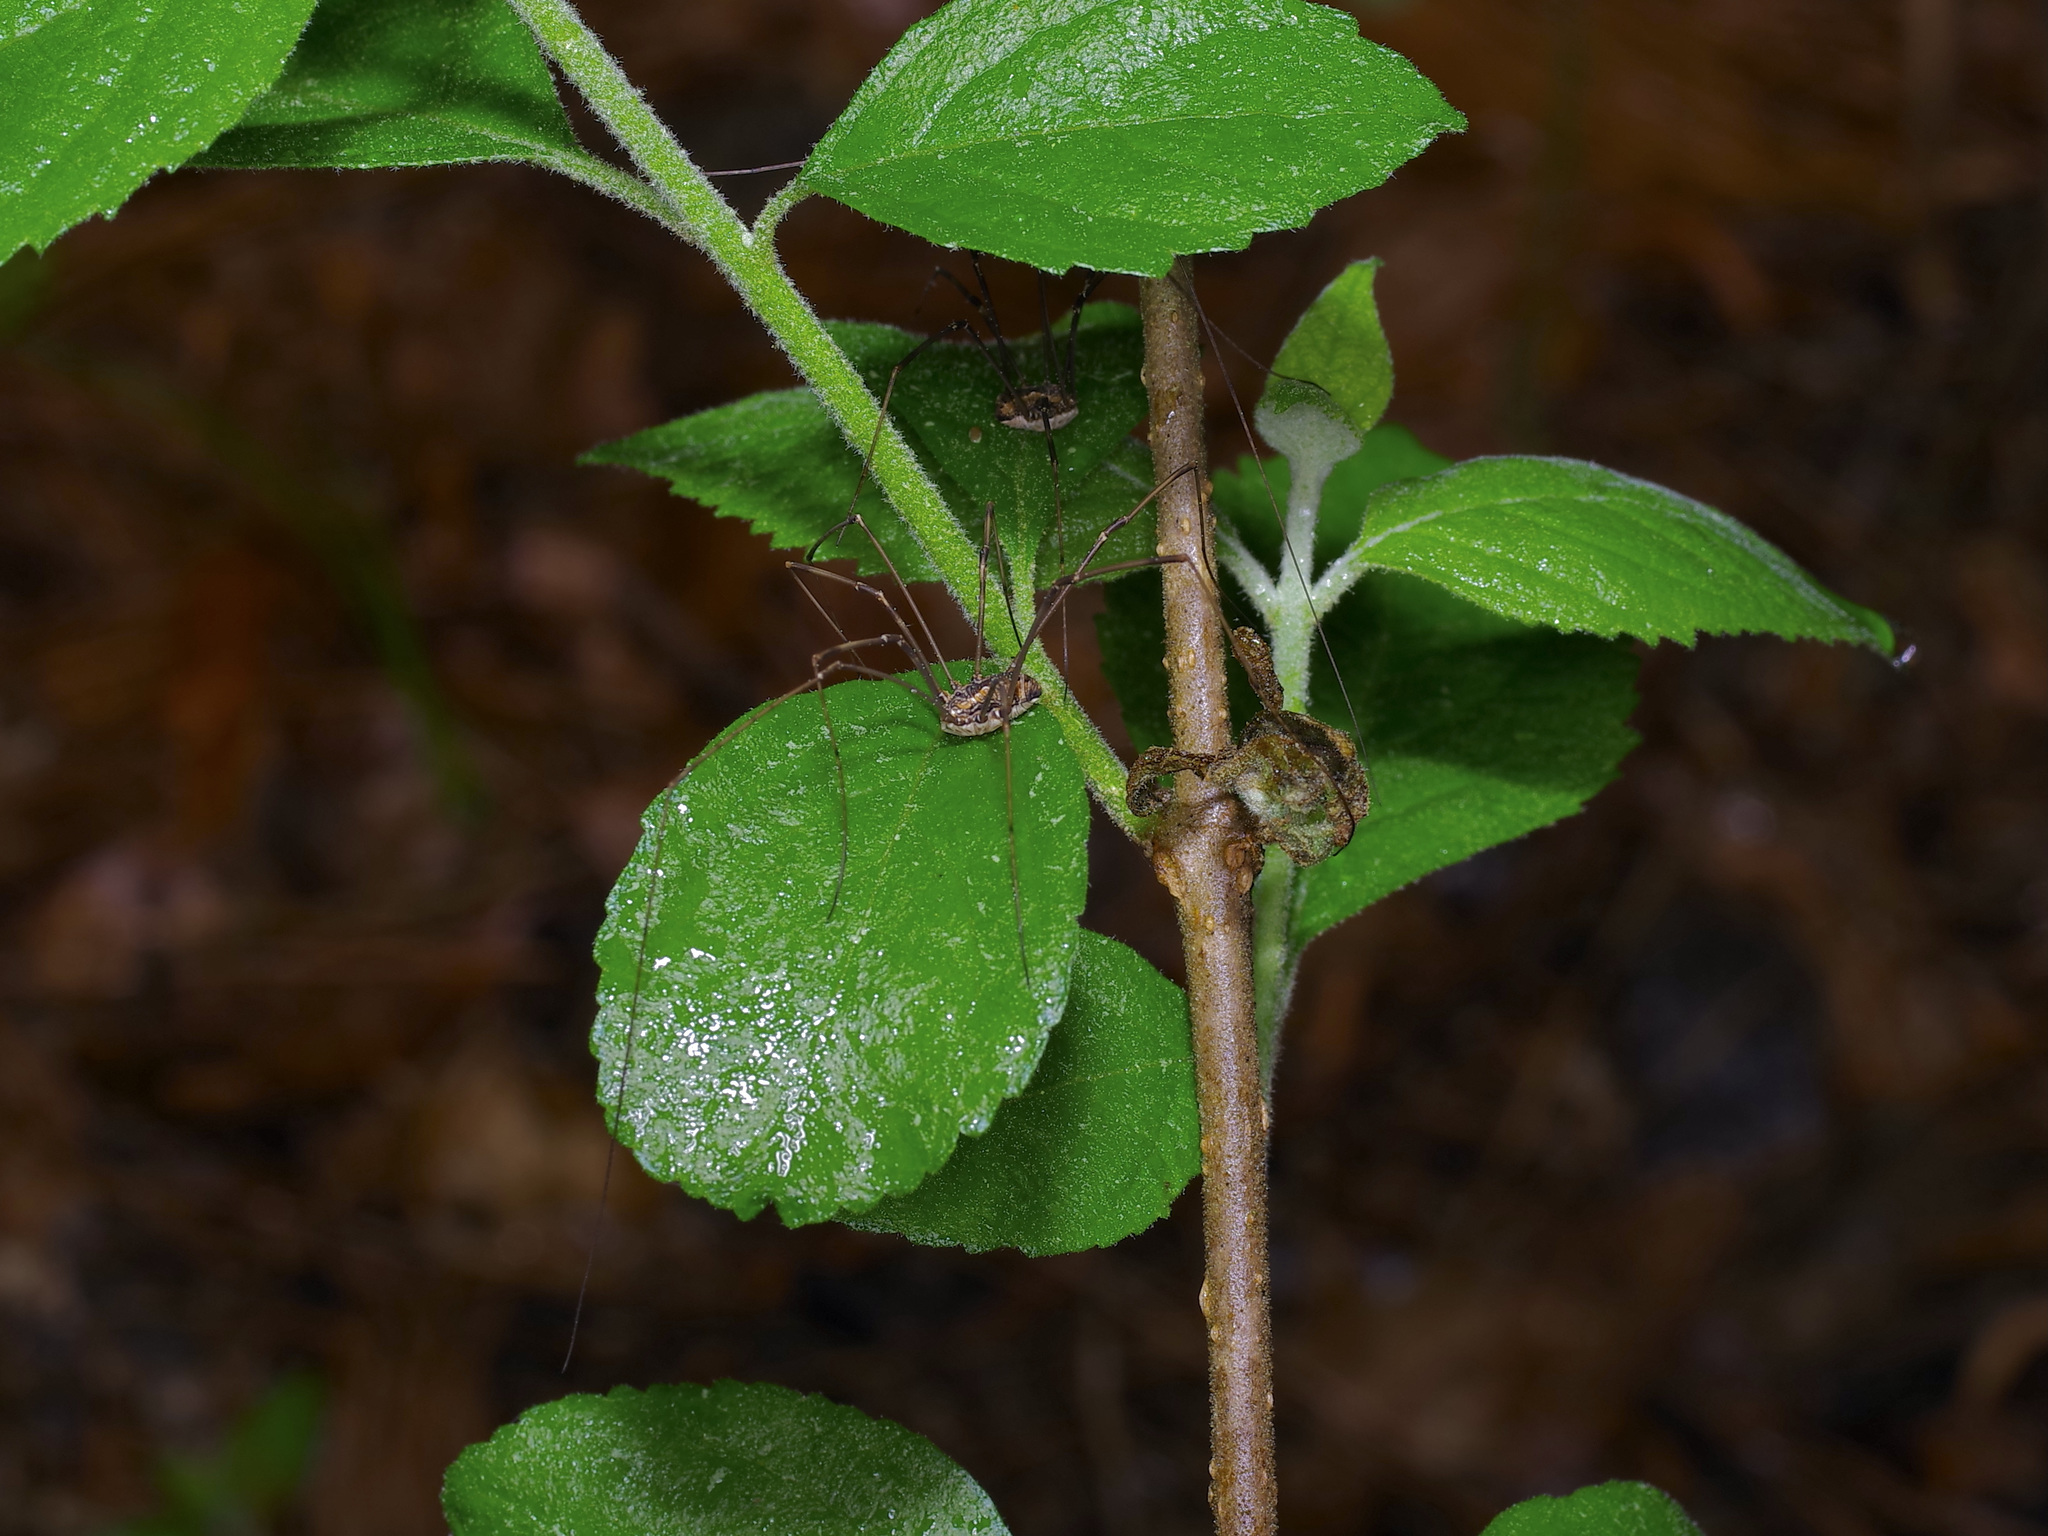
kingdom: Animalia
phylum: Arthropoda
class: Arachnida
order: Opiliones
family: Sclerosomatidae
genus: Leiobunum
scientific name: Leiobunum flavum
